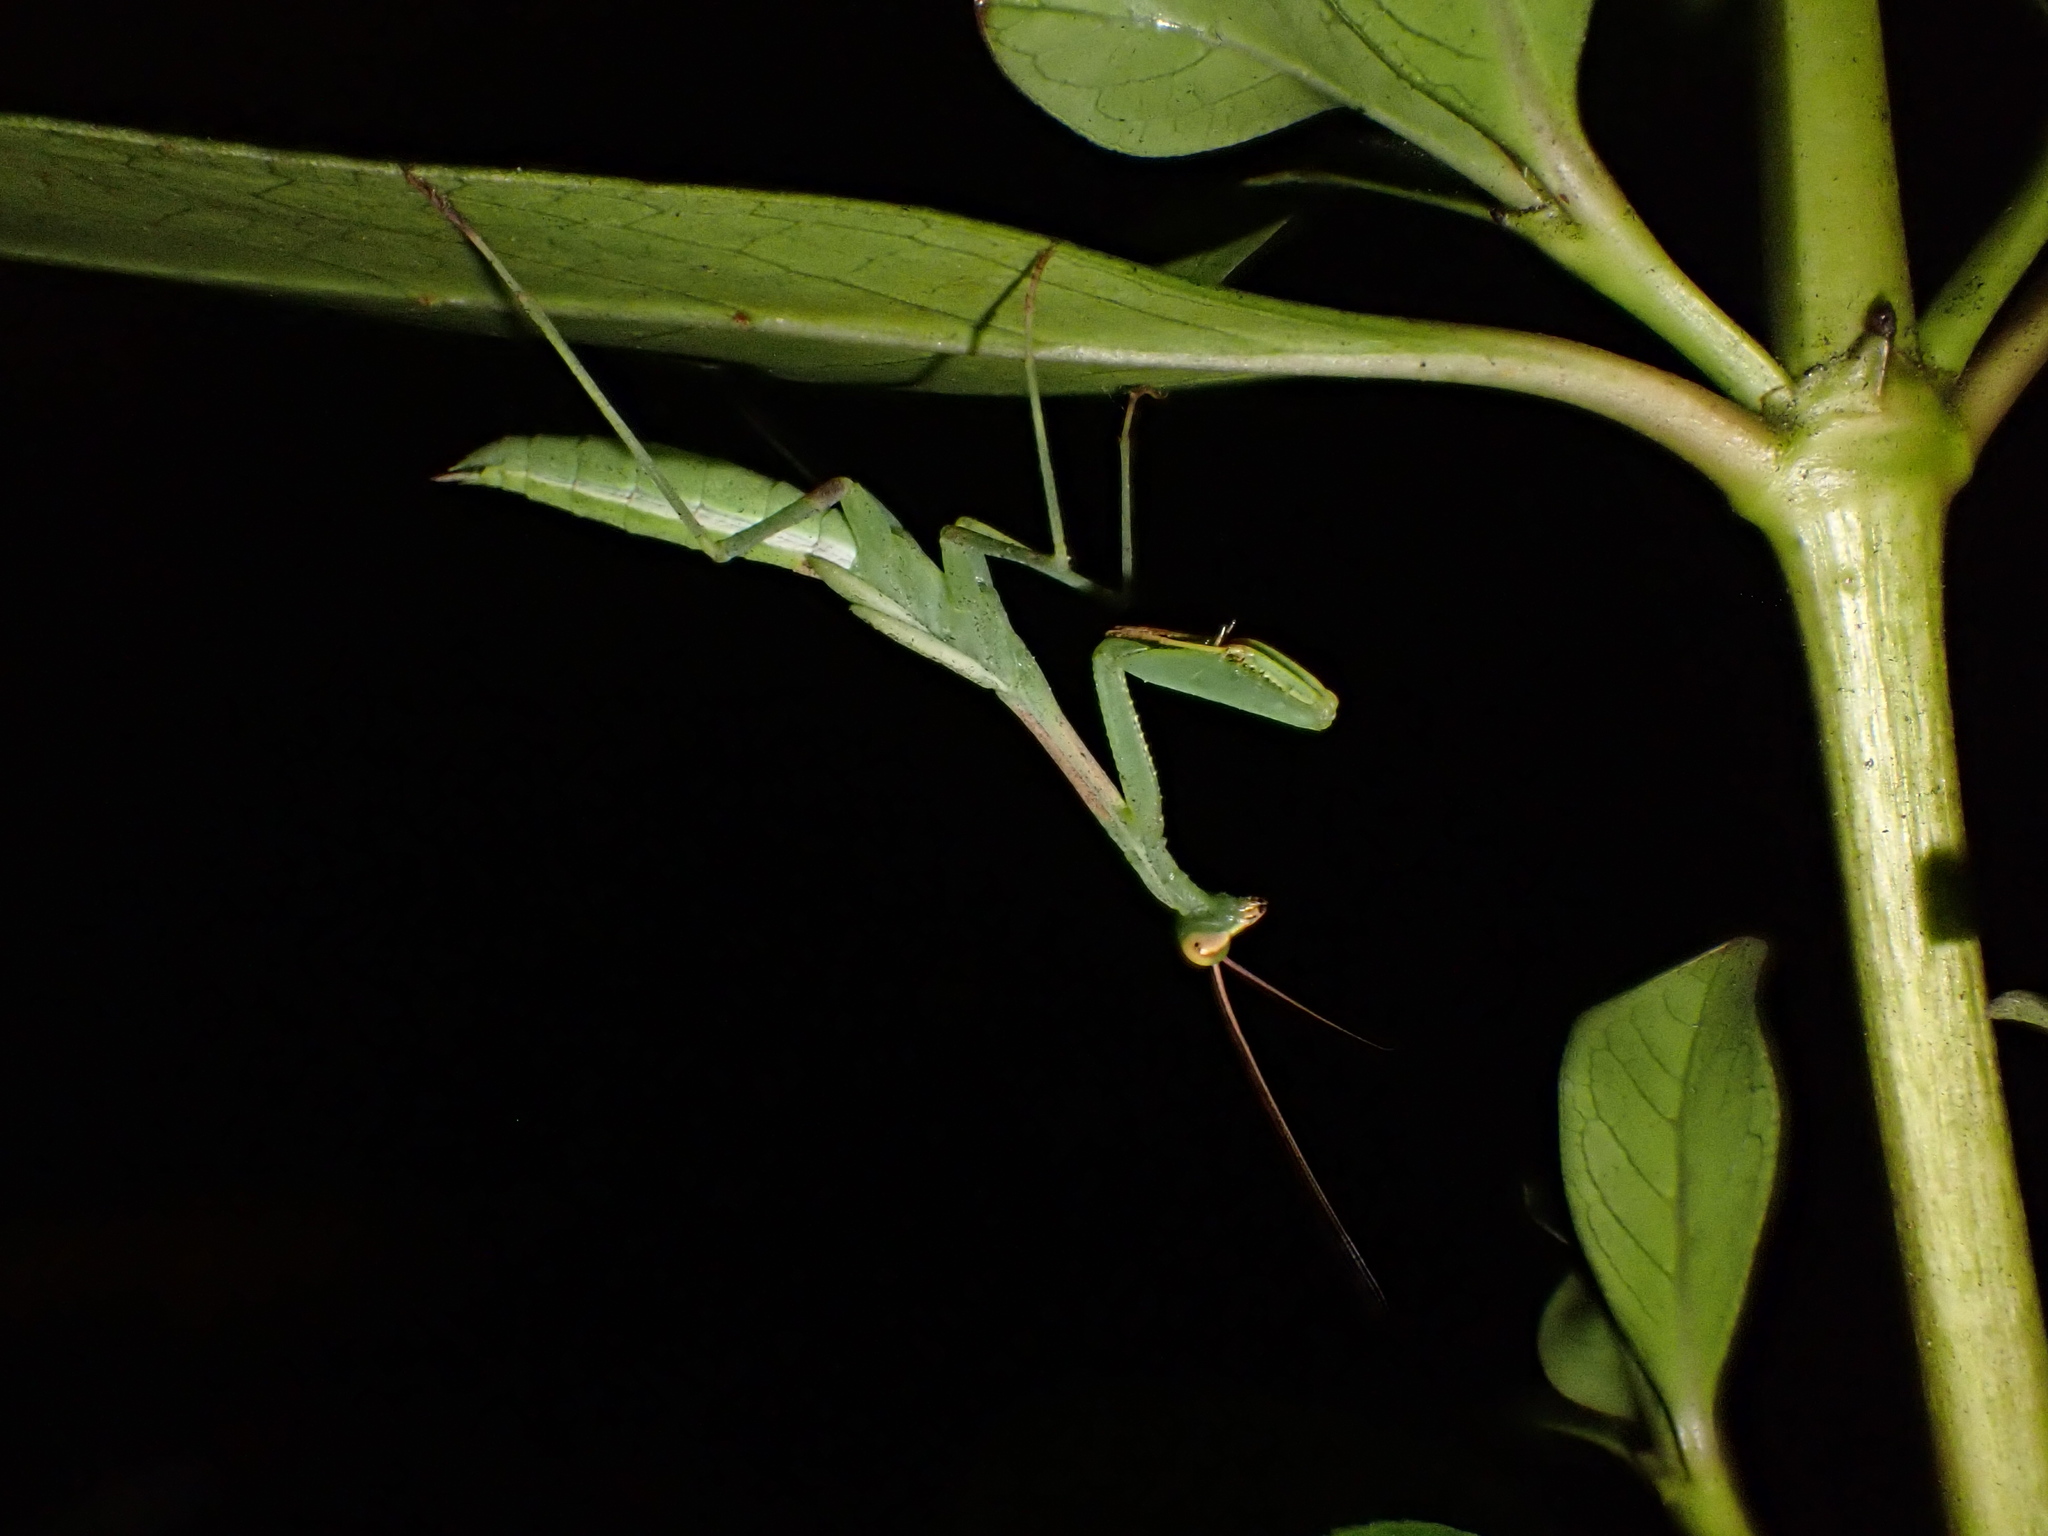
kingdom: Animalia
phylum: Arthropoda
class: Insecta
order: Mantodea
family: Miomantidae
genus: Miomantis
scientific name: Miomantis caffra
